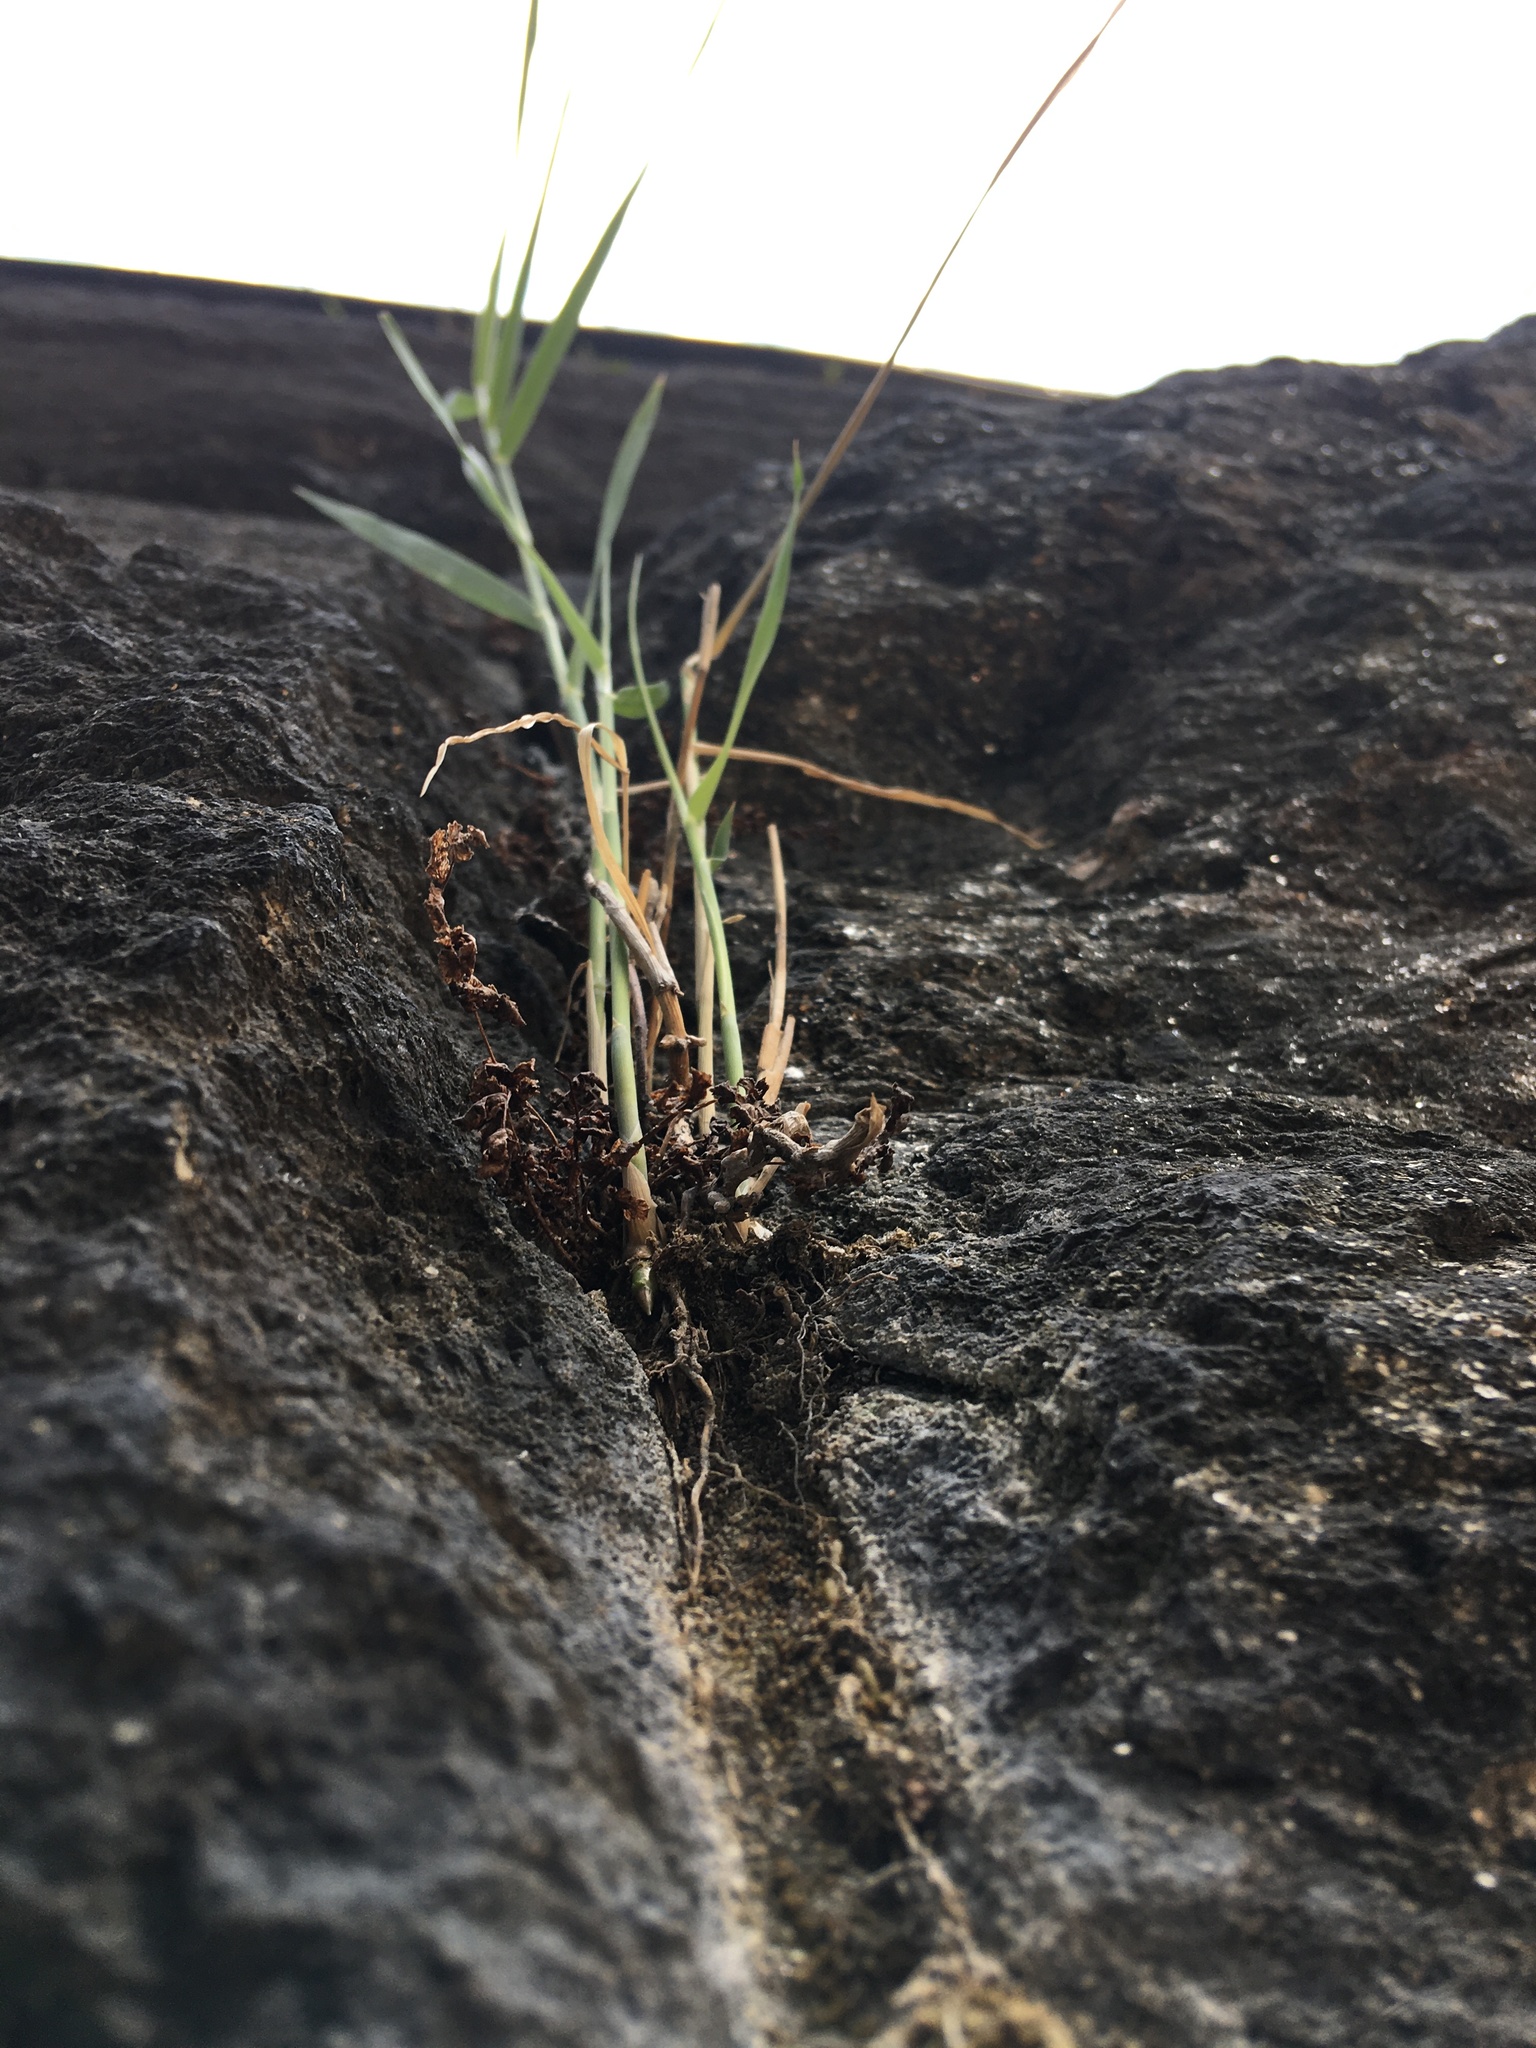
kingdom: Plantae
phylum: Tracheophyta
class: Liliopsida
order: Poales
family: Poaceae
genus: Phragmites
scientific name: Phragmites australis
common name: Common reed
